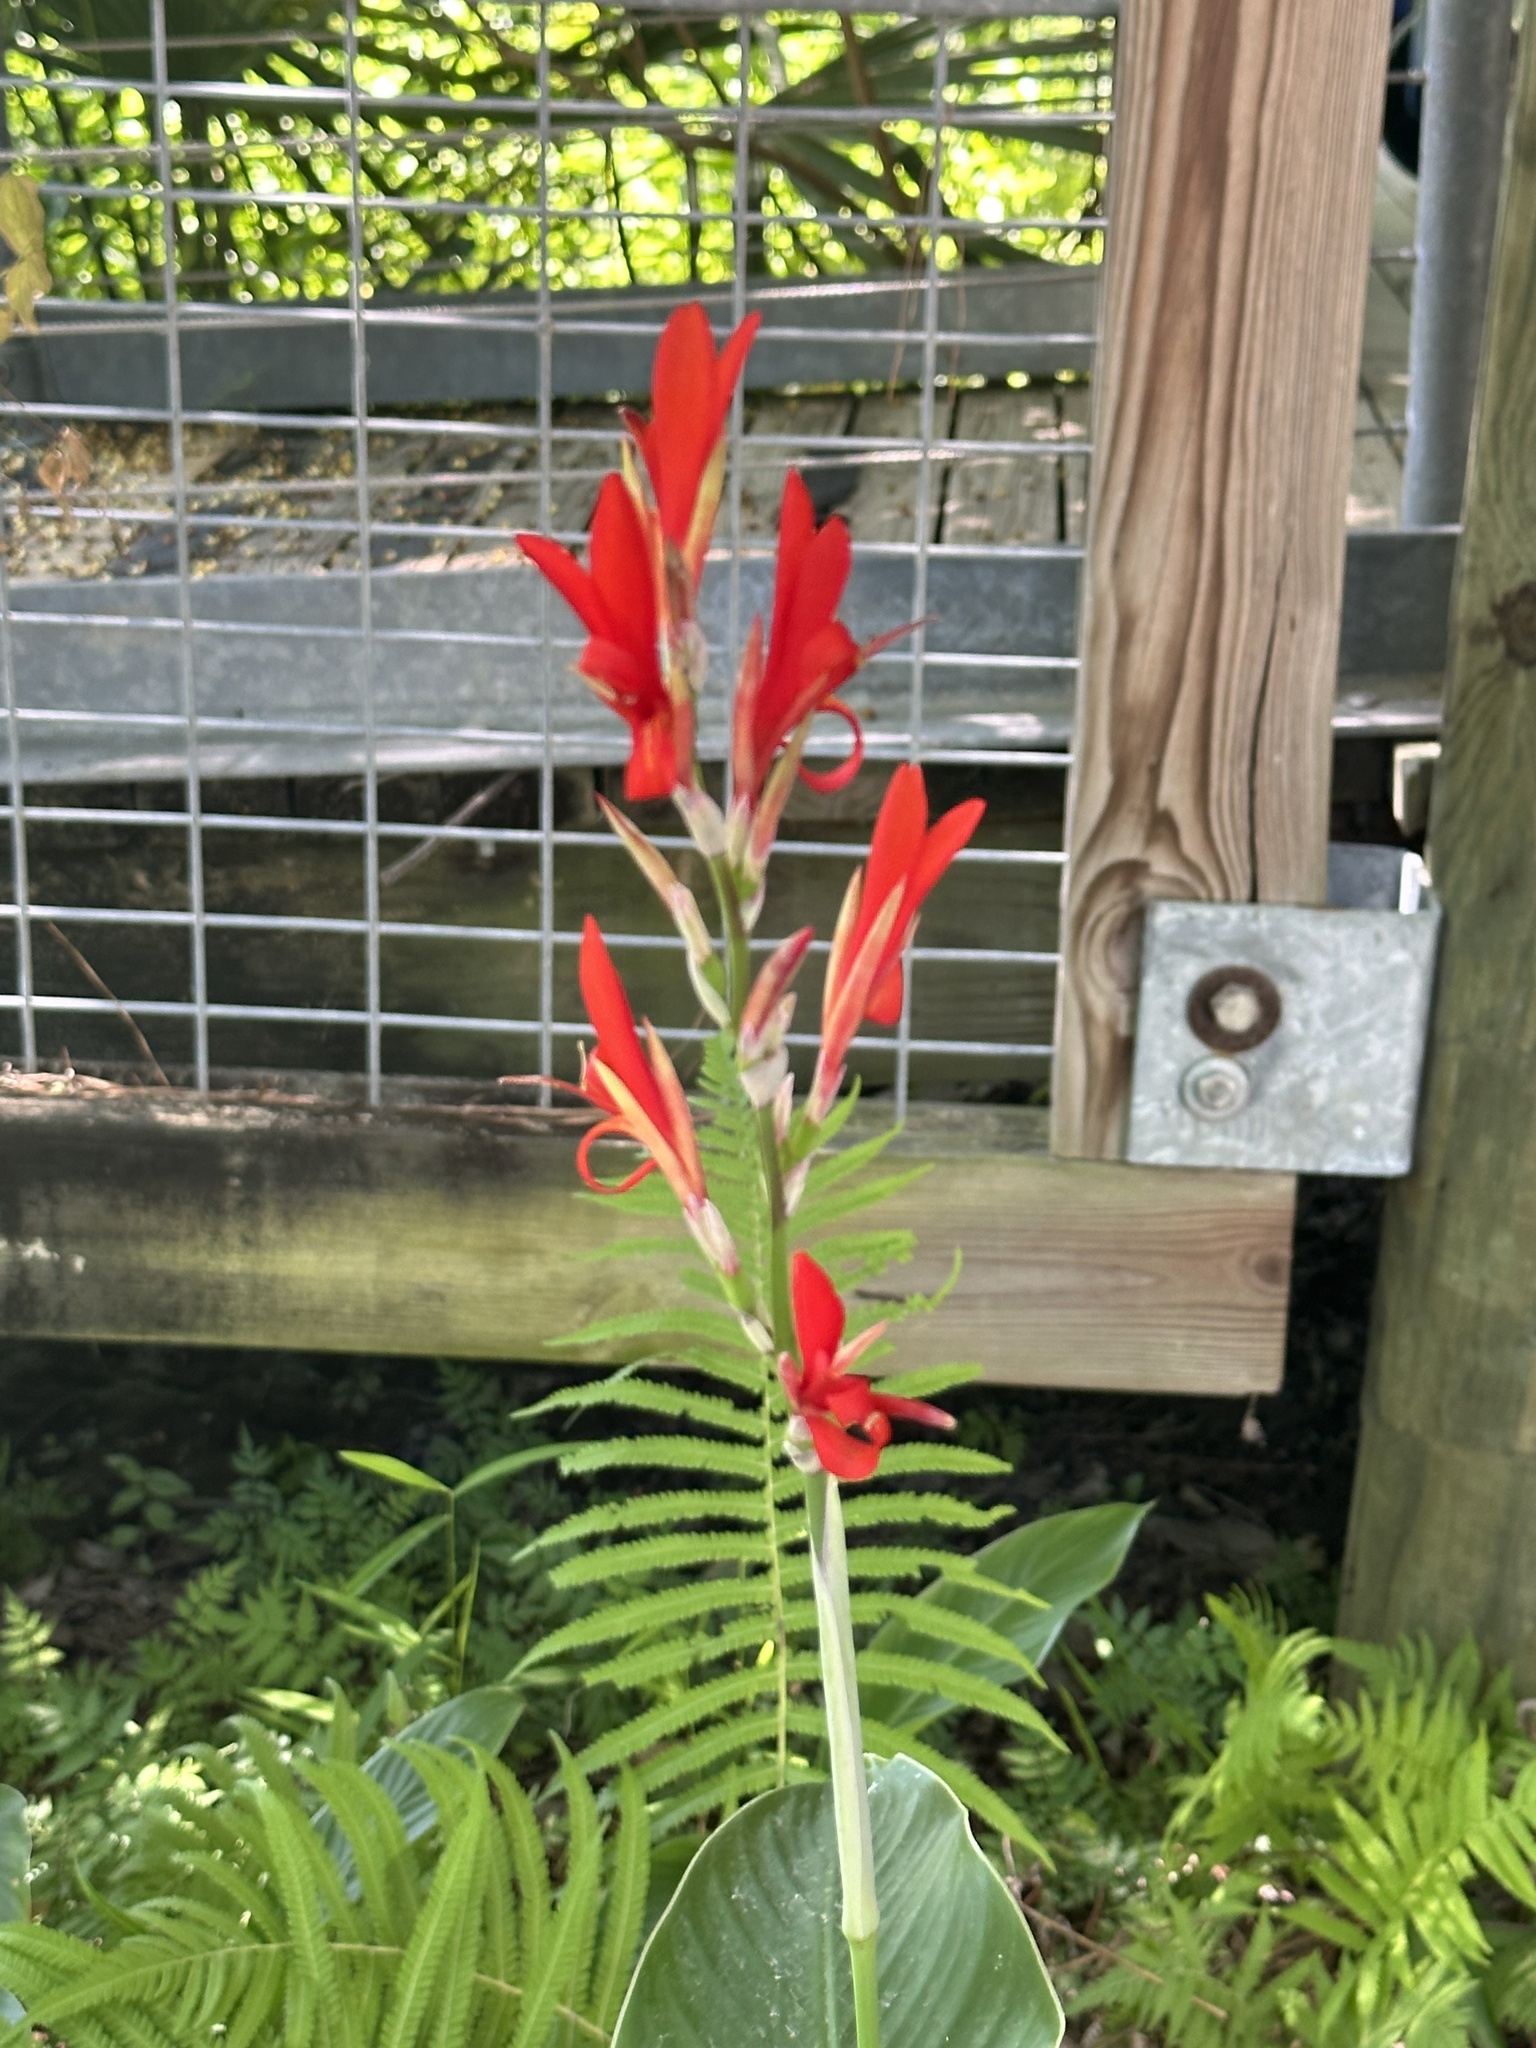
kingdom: Plantae
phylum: Tracheophyta
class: Liliopsida
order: Zingiberales
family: Cannaceae
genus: Canna
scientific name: Canna indica
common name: Indian shot
